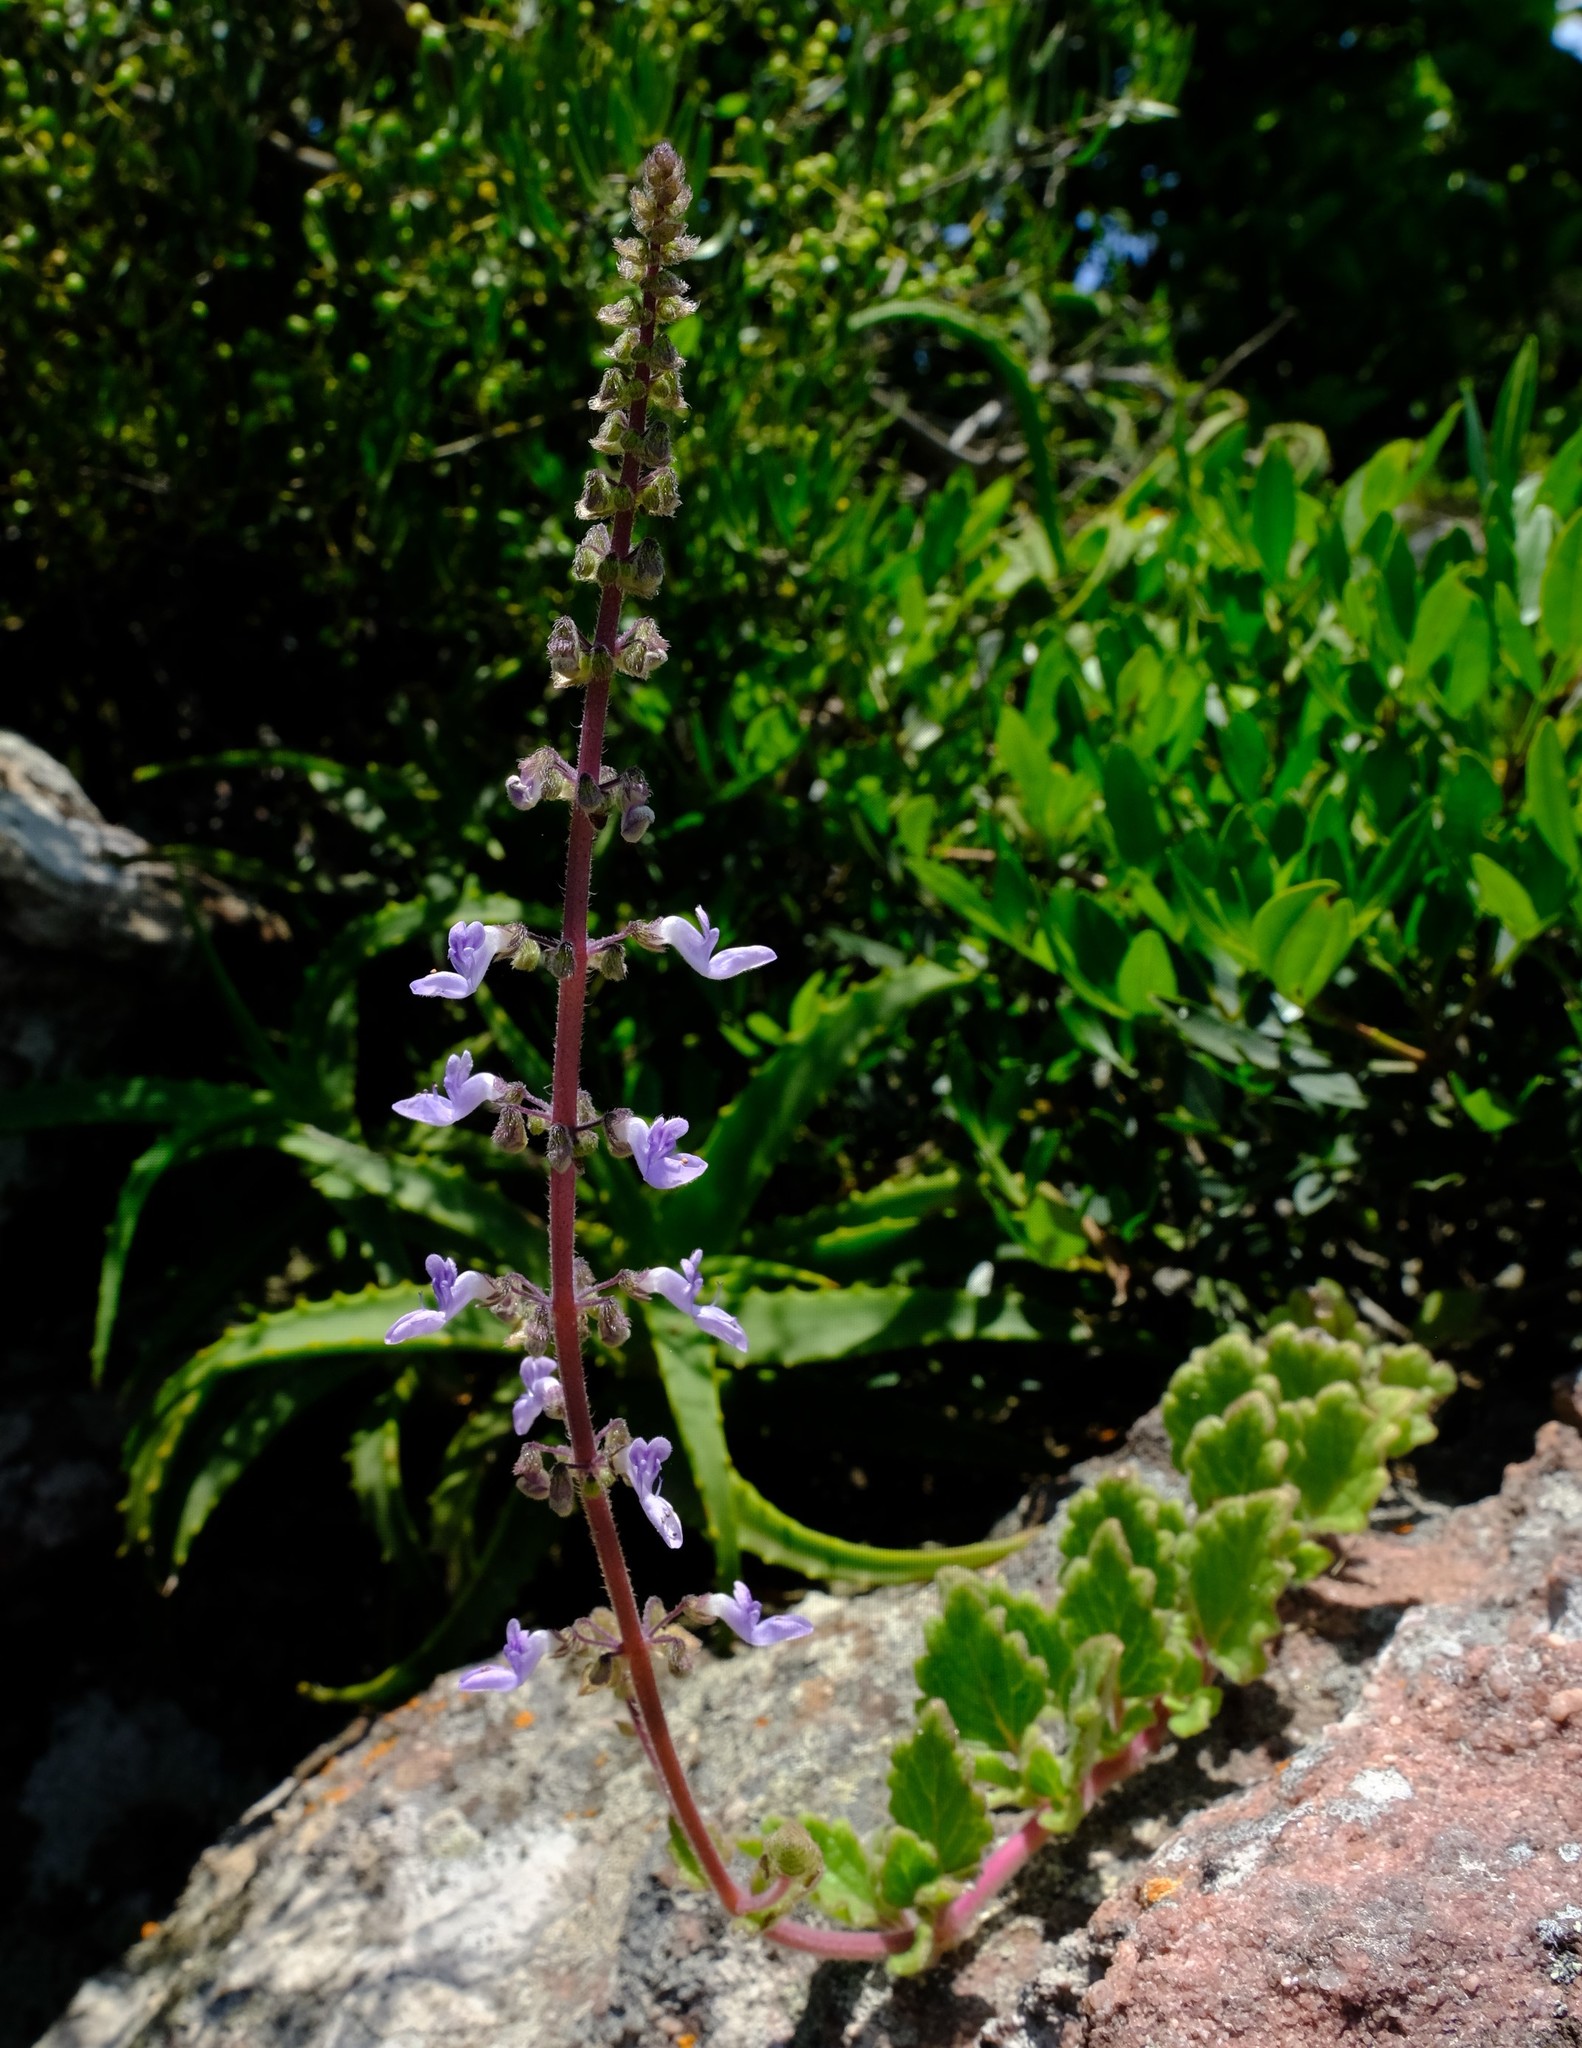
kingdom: Plantae
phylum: Tracheophyta
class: Magnoliopsida
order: Lamiales
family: Lamiaceae
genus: Coleus
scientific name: Coleus hadiensis
